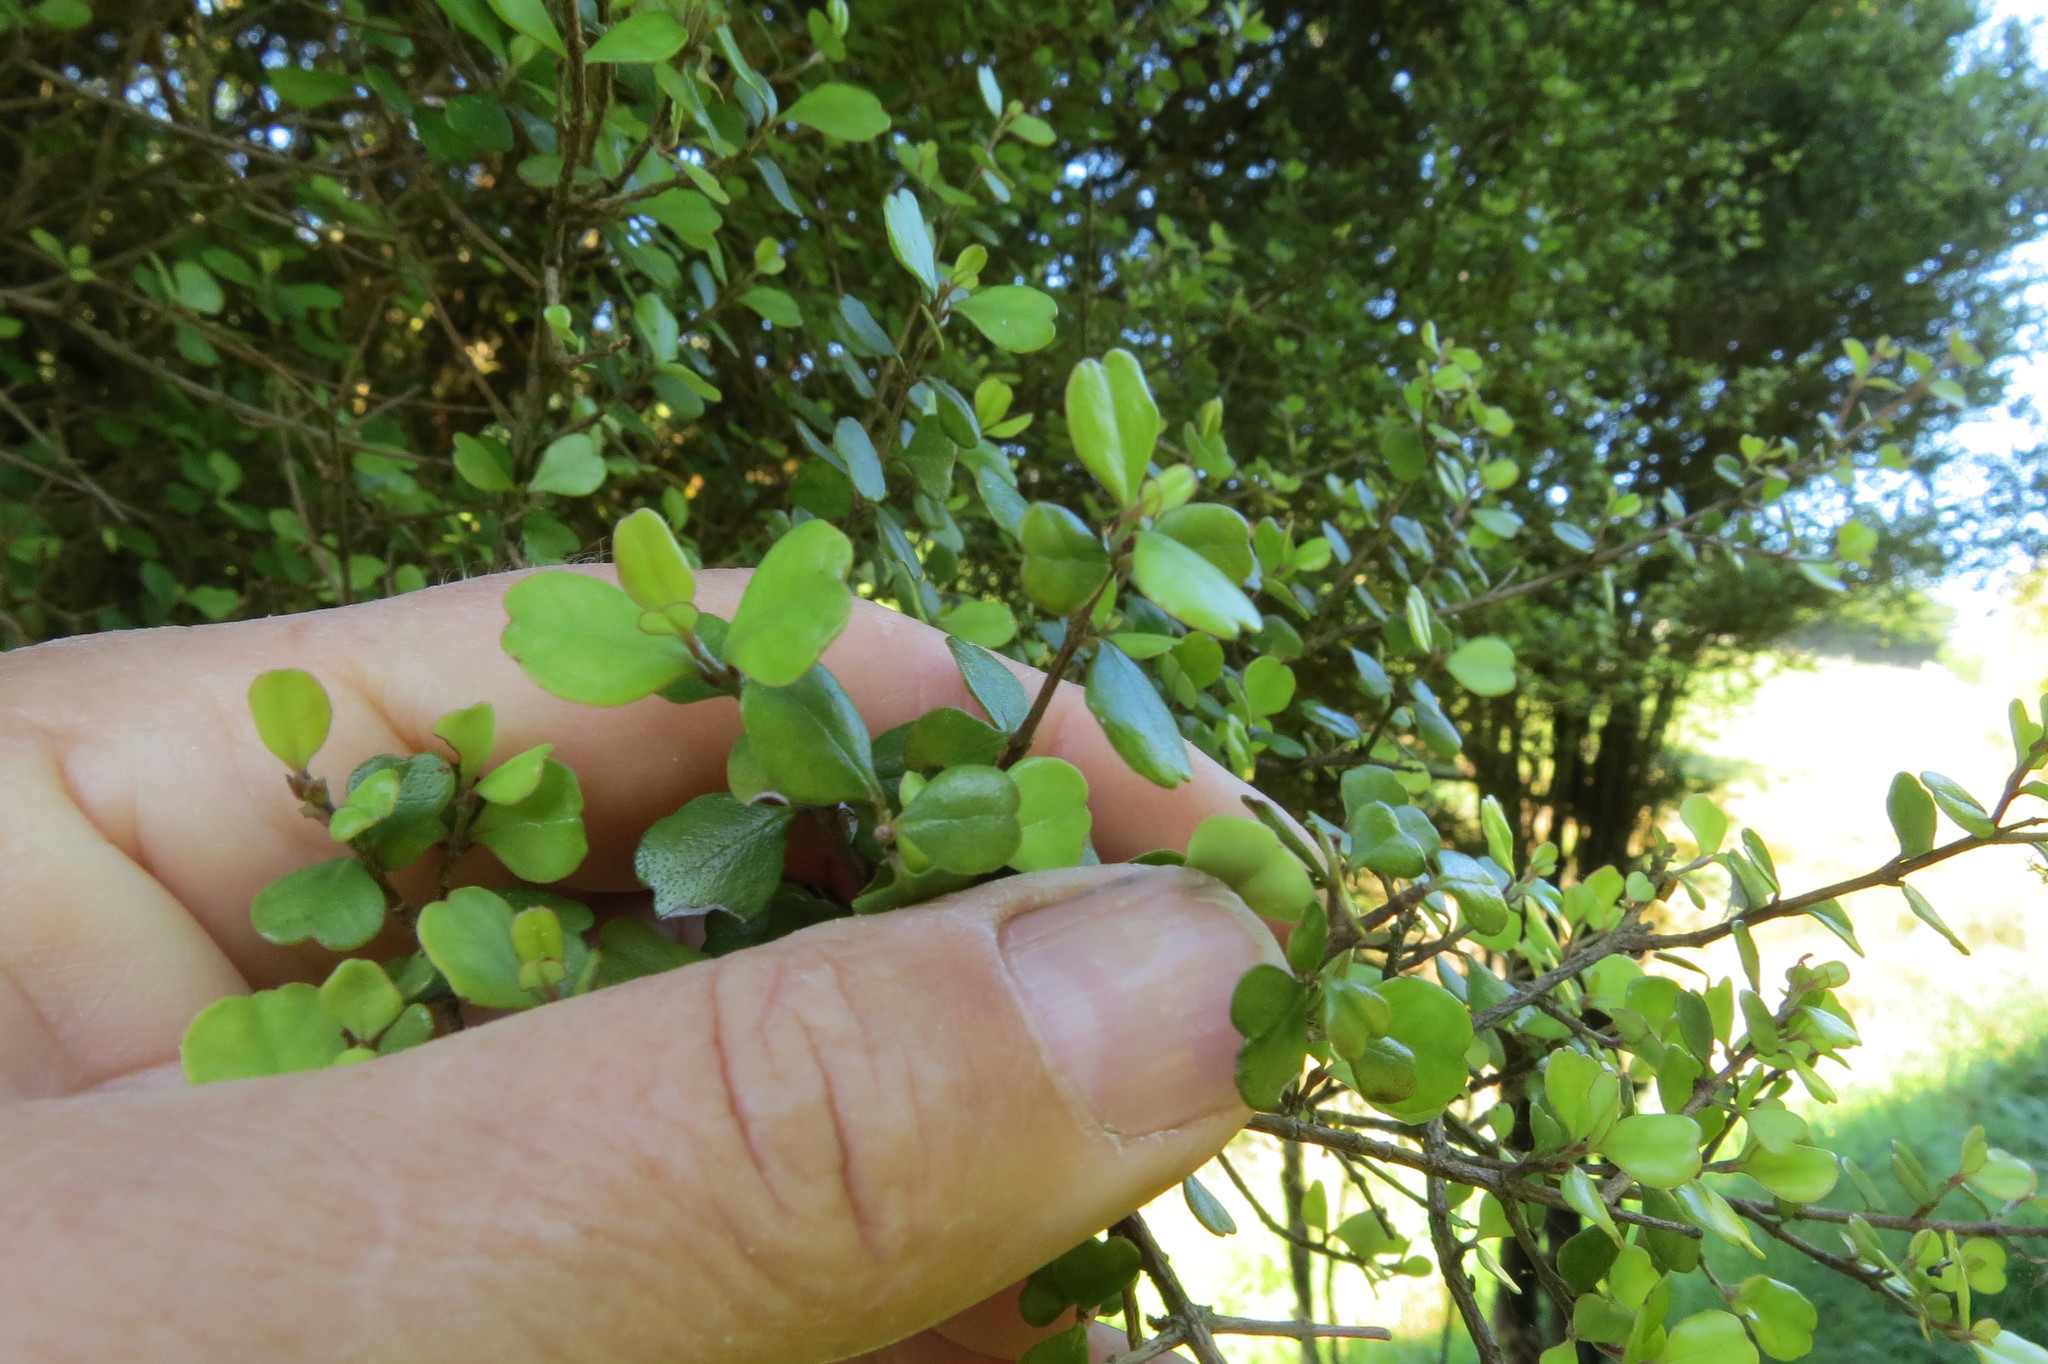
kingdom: Plantae
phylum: Tracheophyta
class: Magnoliopsida
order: Myrtales
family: Myrtaceae
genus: Lophomyrtus
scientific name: Lophomyrtus obcordata
